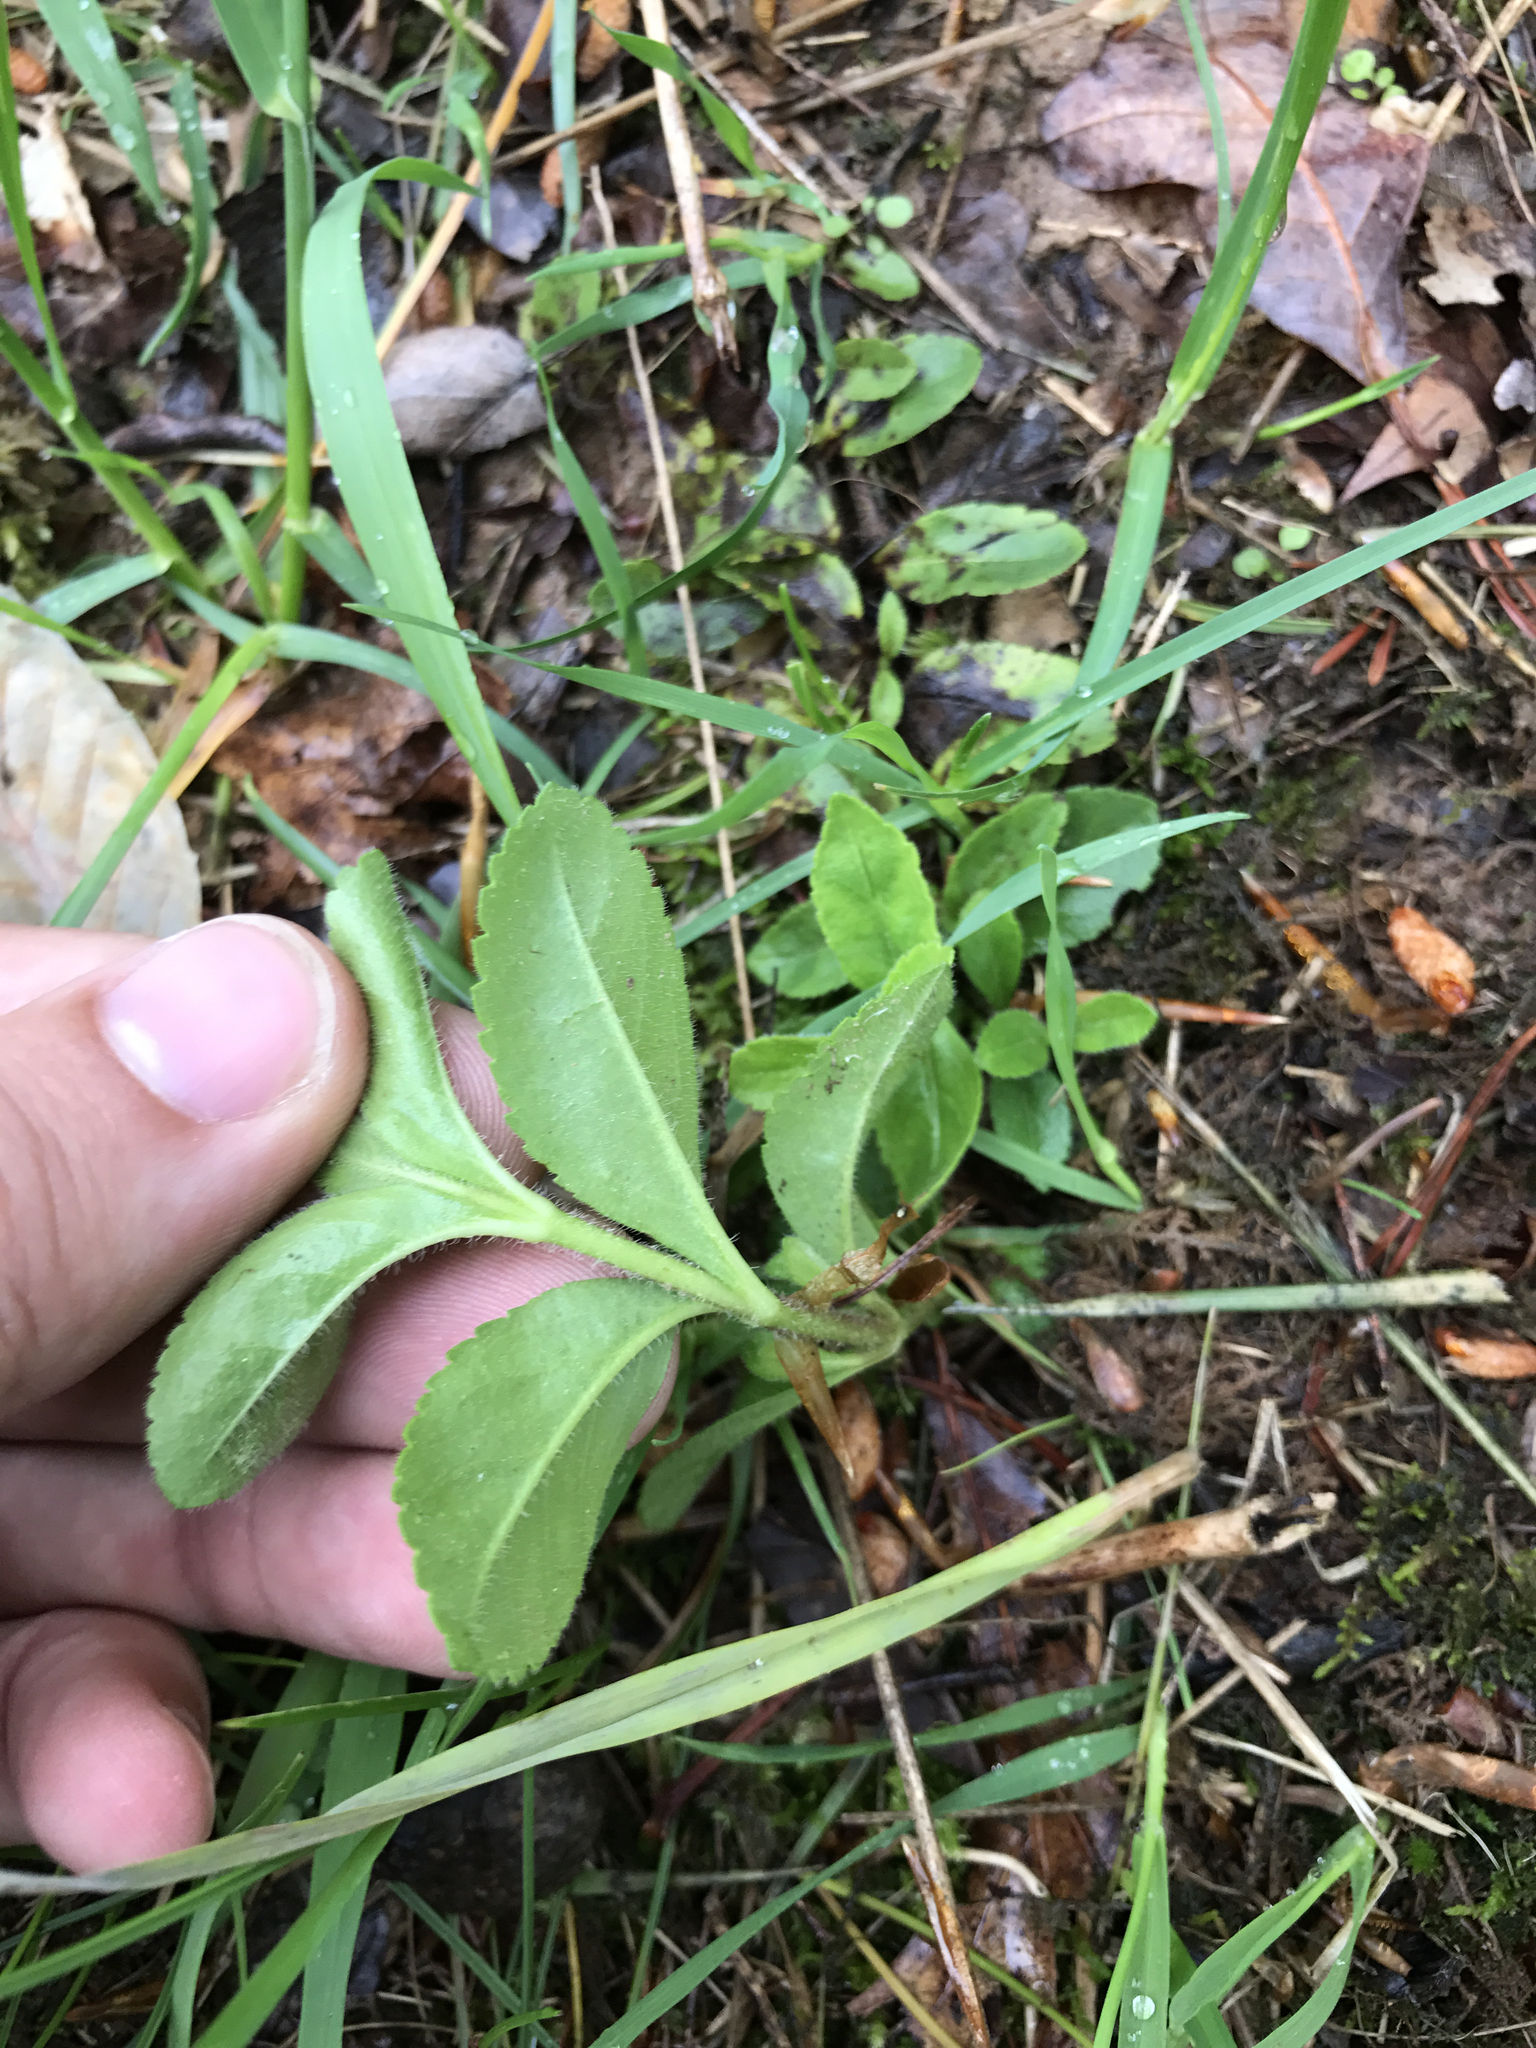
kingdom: Plantae
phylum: Tracheophyta
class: Magnoliopsida
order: Lamiales
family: Plantaginaceae
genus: Veronica
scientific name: Veronica officinalis
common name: Common speedwell
